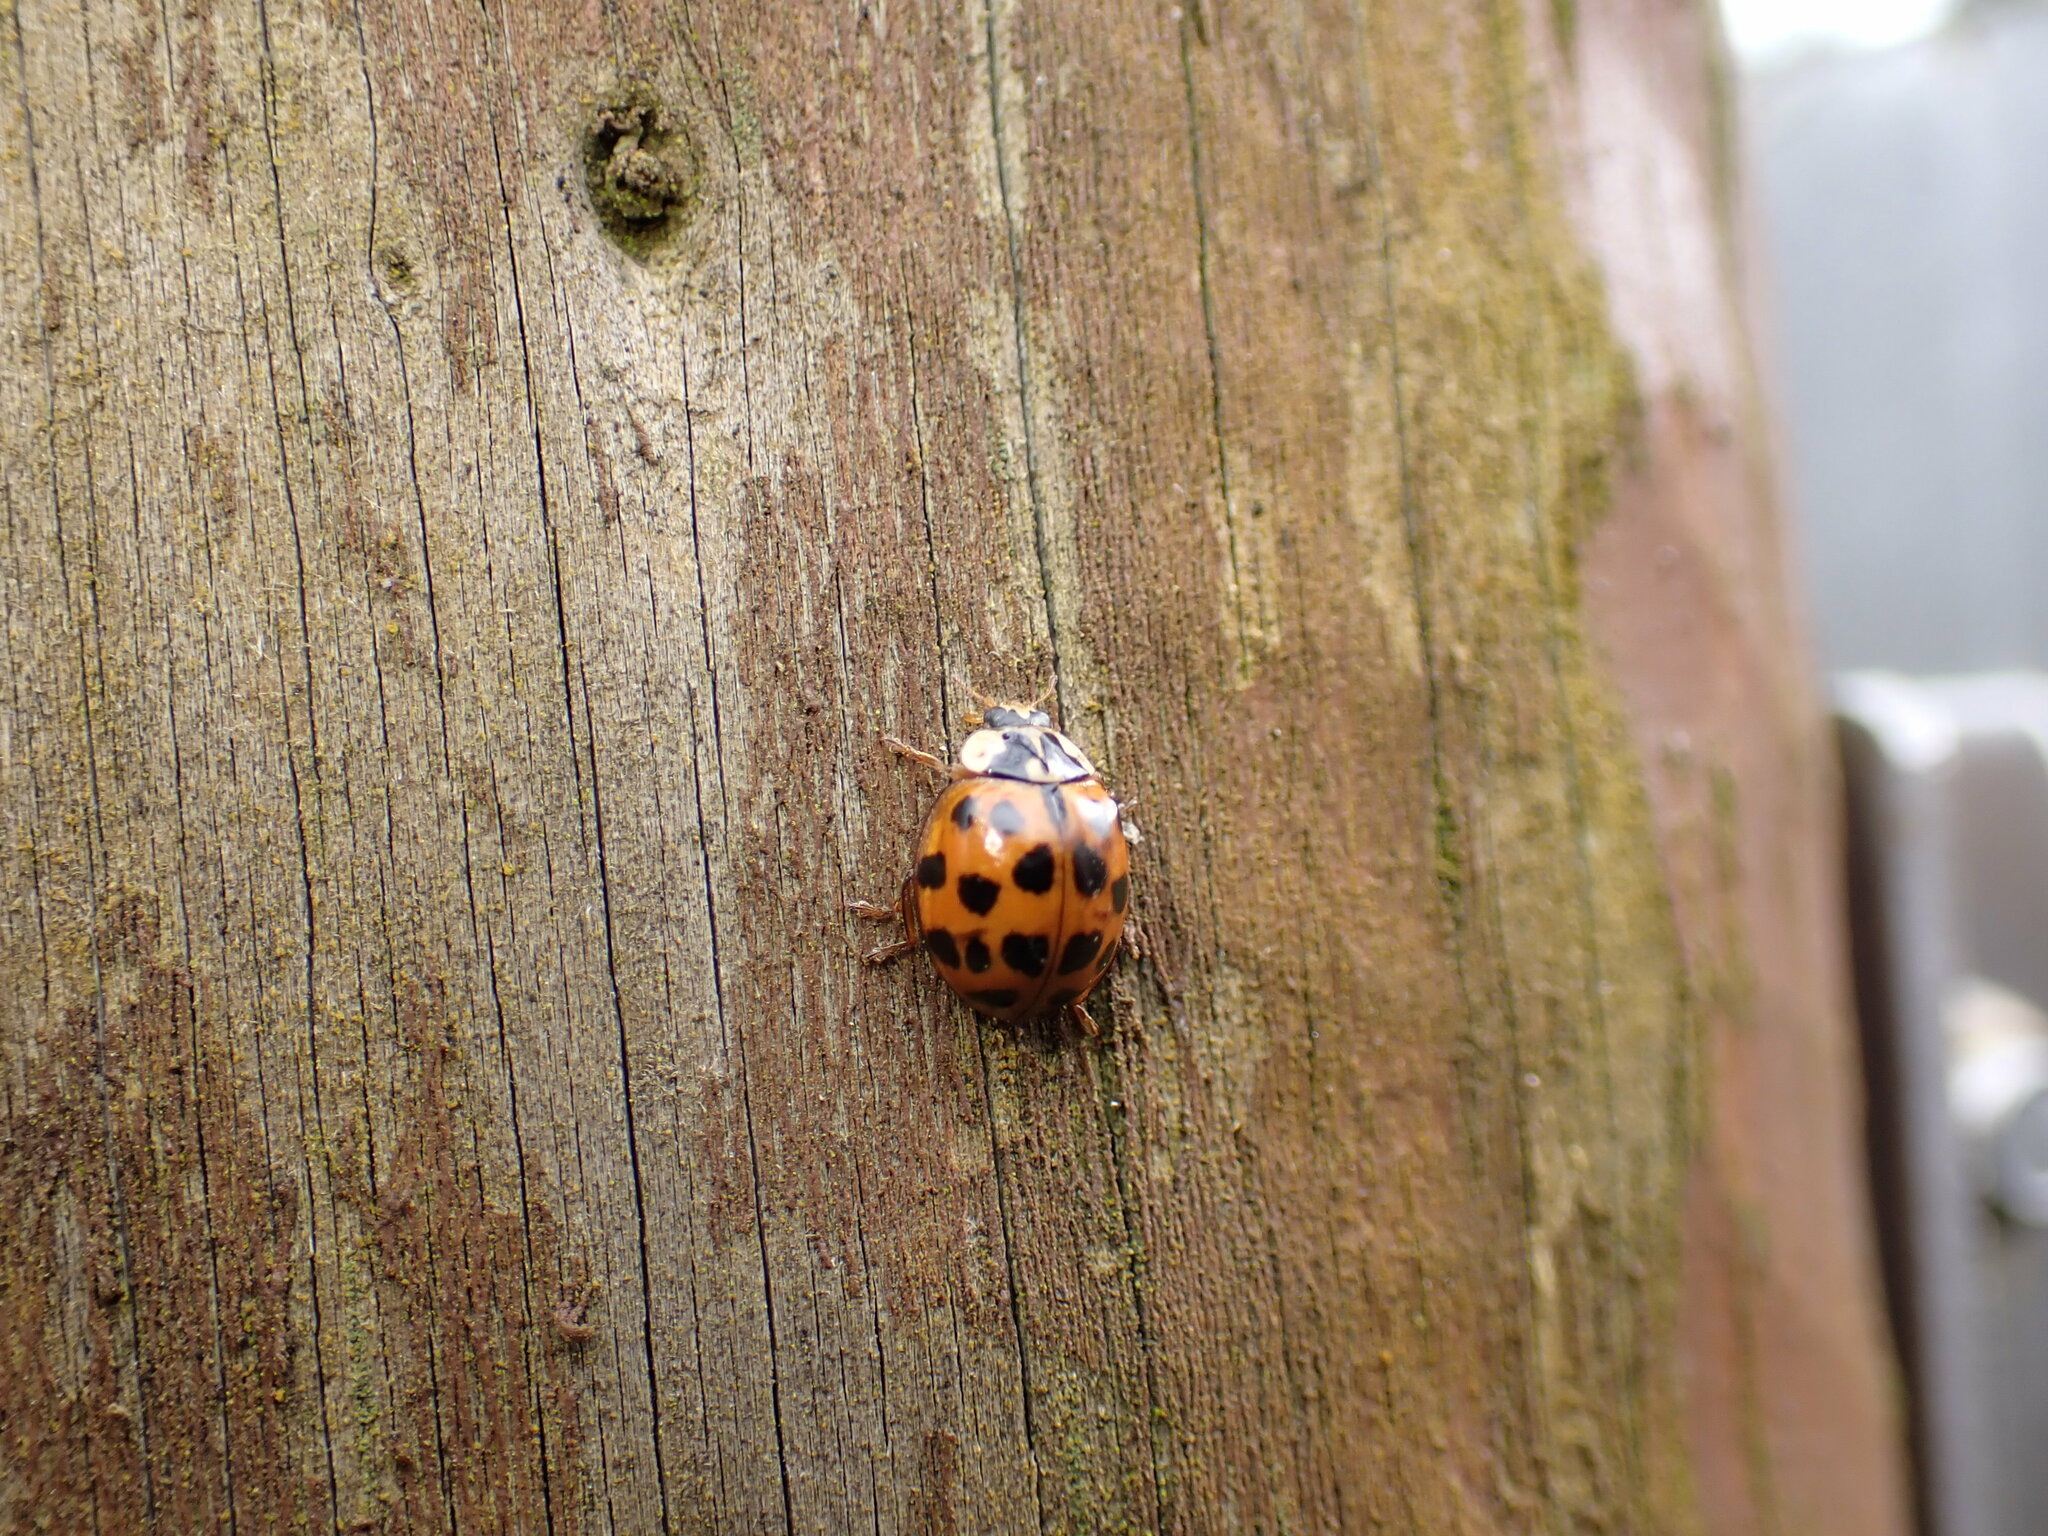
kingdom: Animalia
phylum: Arthropoda
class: Insecta
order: Coleoptera
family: Coccinellidae
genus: Harmonia
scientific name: Harmonia axyridis
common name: Harlequin ladybird
